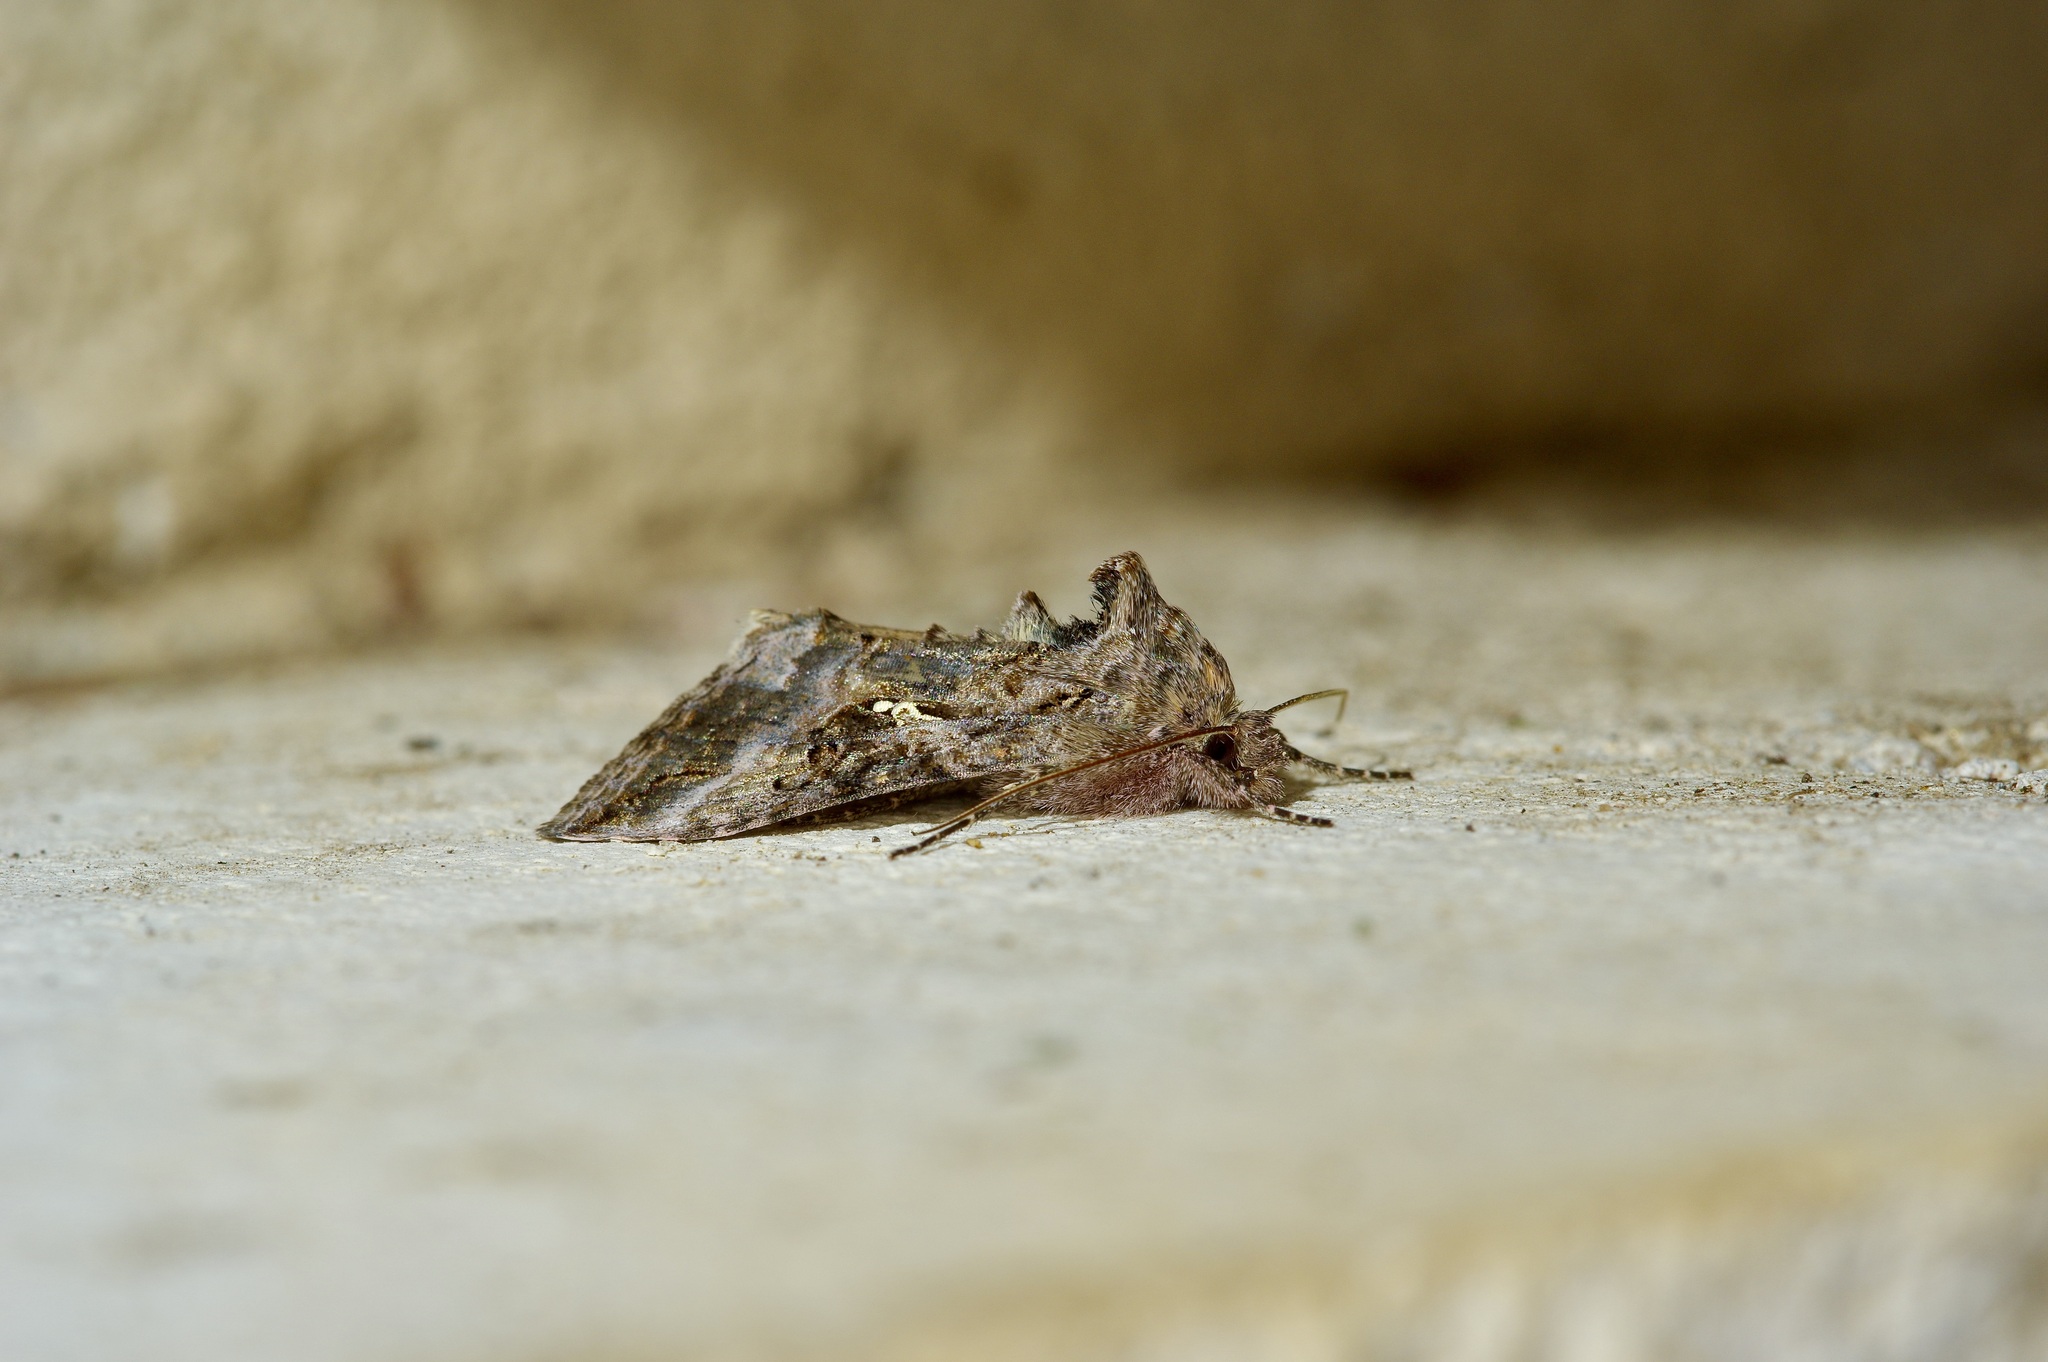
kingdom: Animalia
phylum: Arthropoda
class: Insecta
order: Lepidoptera
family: Noctuidae
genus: Rachiplusia
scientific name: Rachiplusia ou
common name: Gray looper moth
